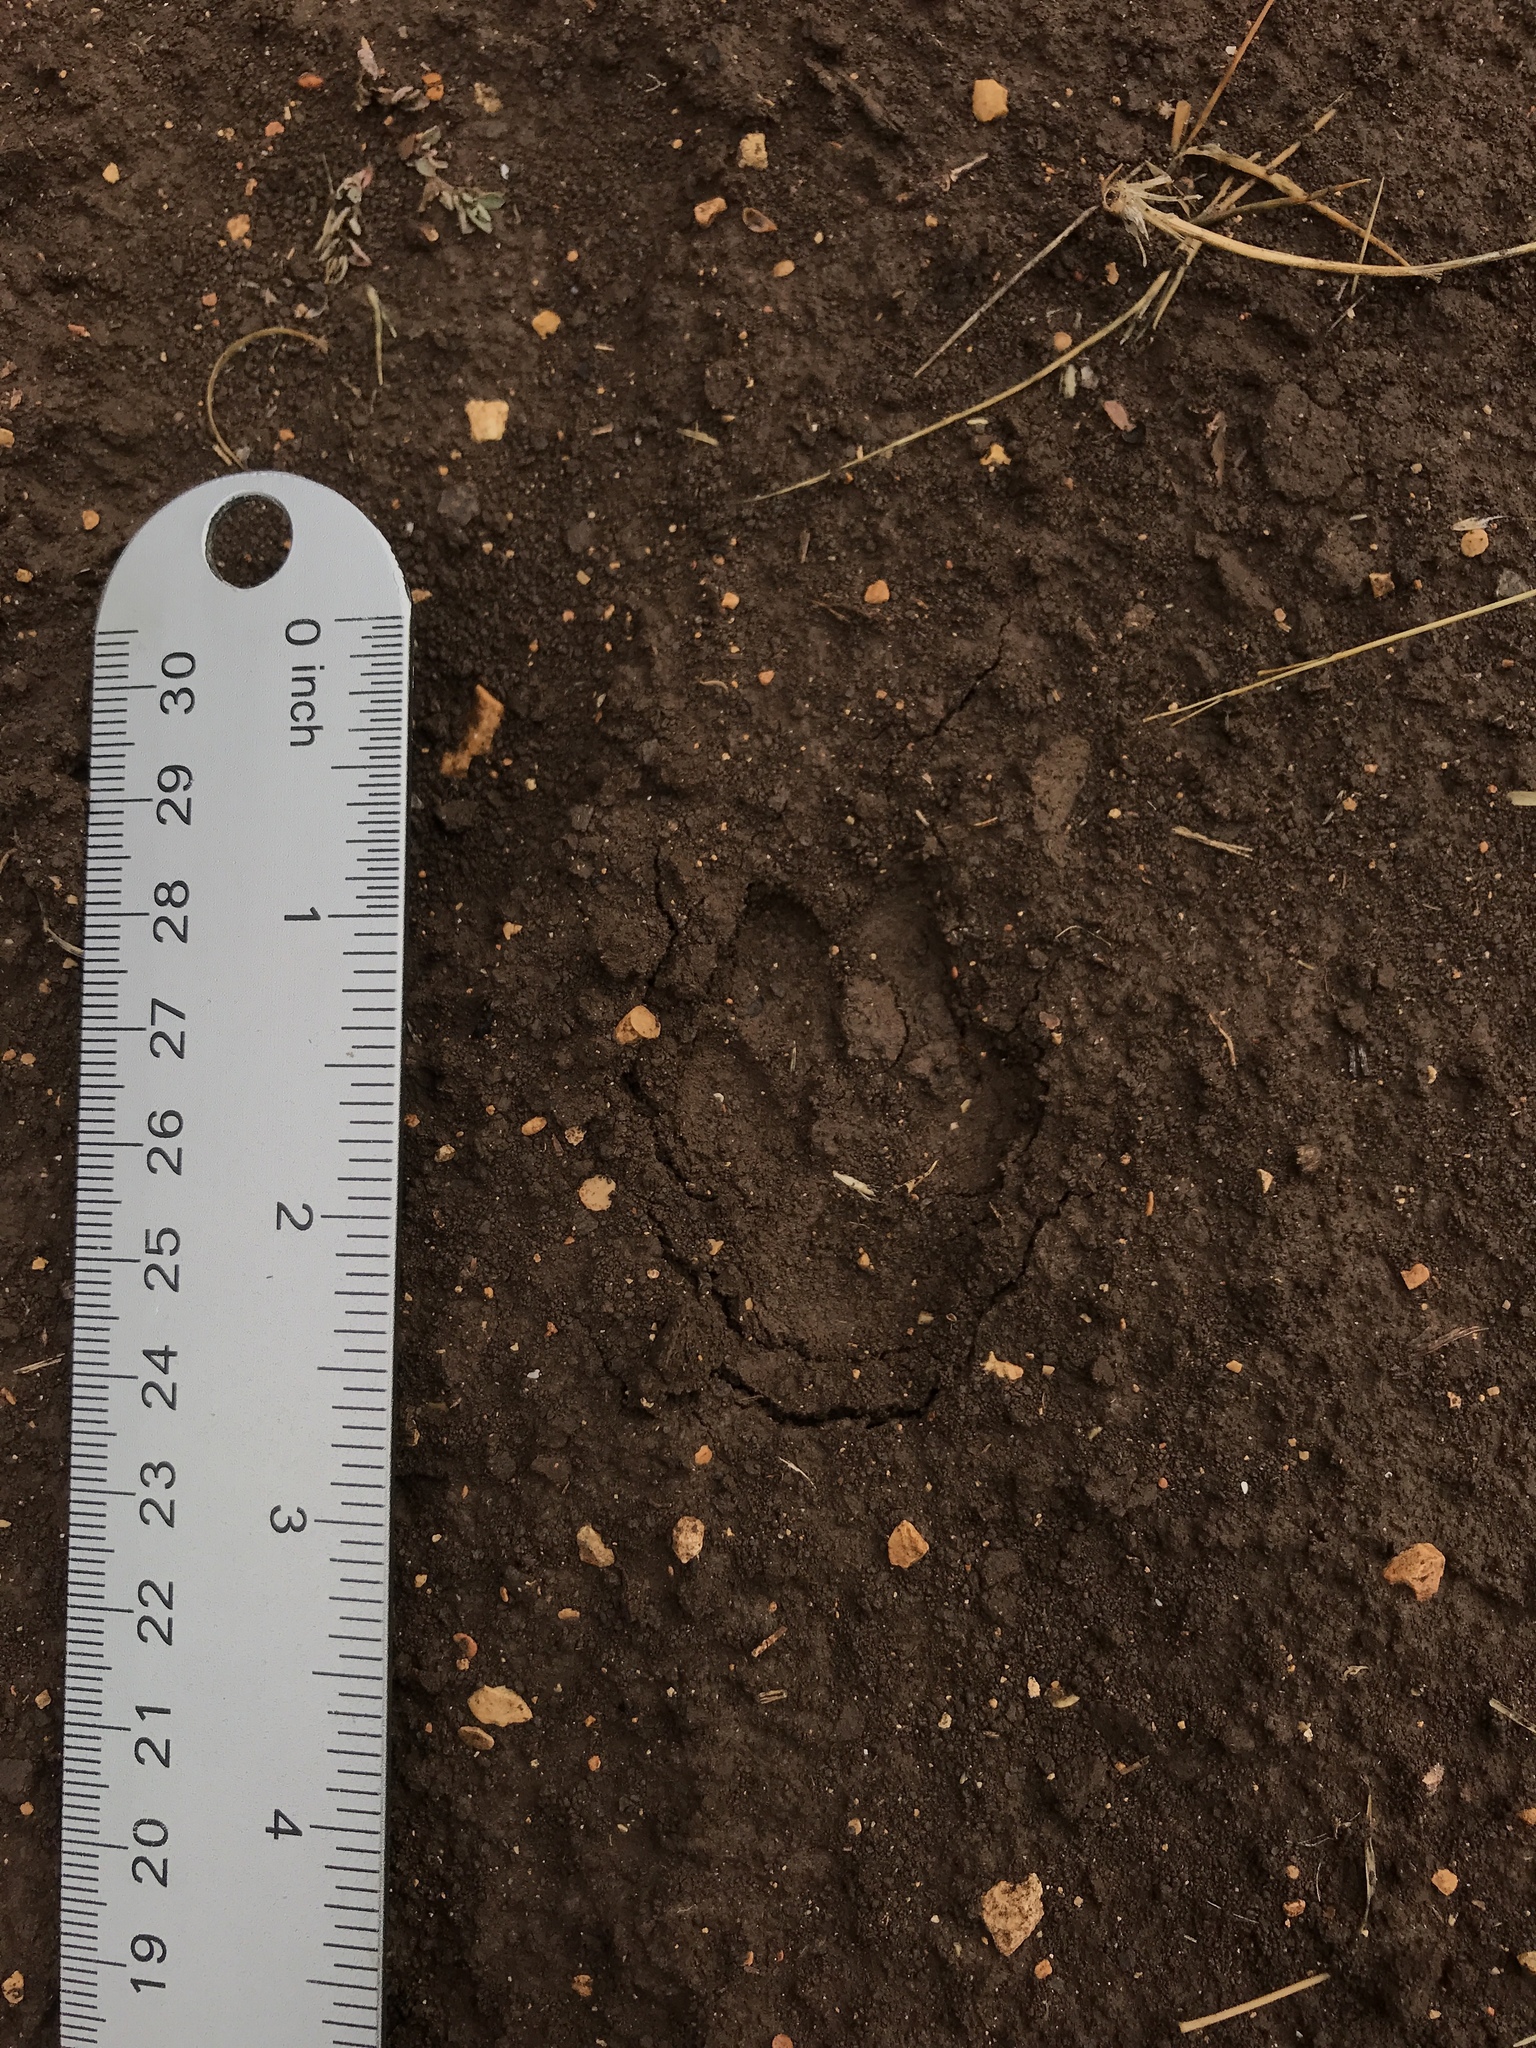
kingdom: Animalia
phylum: Chordata
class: Mammalia
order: Carnivora
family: Canidae
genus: Urocyon
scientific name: Urocyon cinereoargenteus
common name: Gray fox
